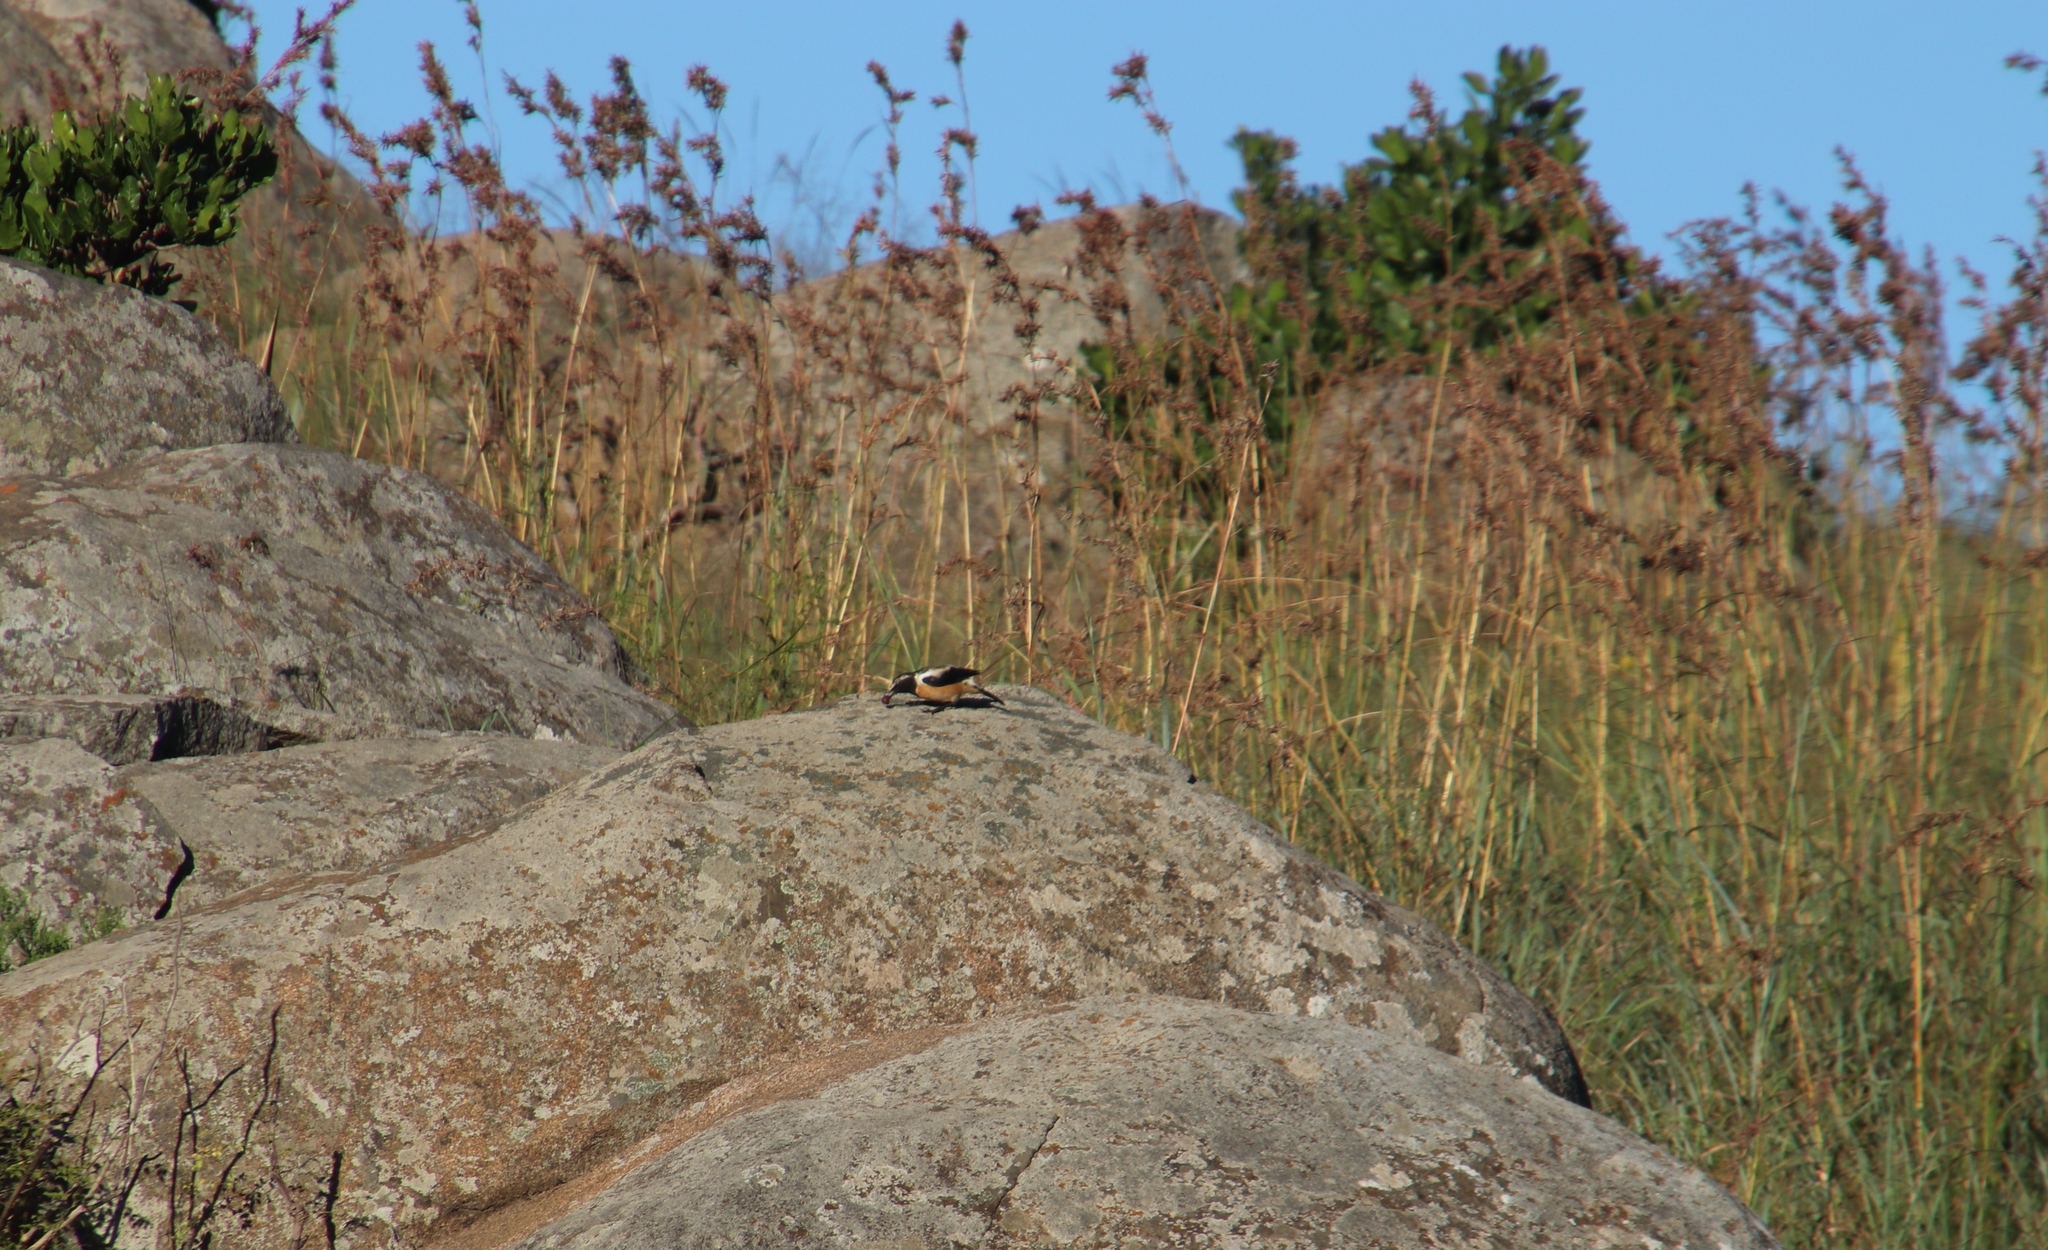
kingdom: Animalia
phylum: Chordata
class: Aves
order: Passeriformes
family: Muscicapidae
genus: Campicoloides
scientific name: Campicoloides bifasciatus
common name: Buff-streaked chat
